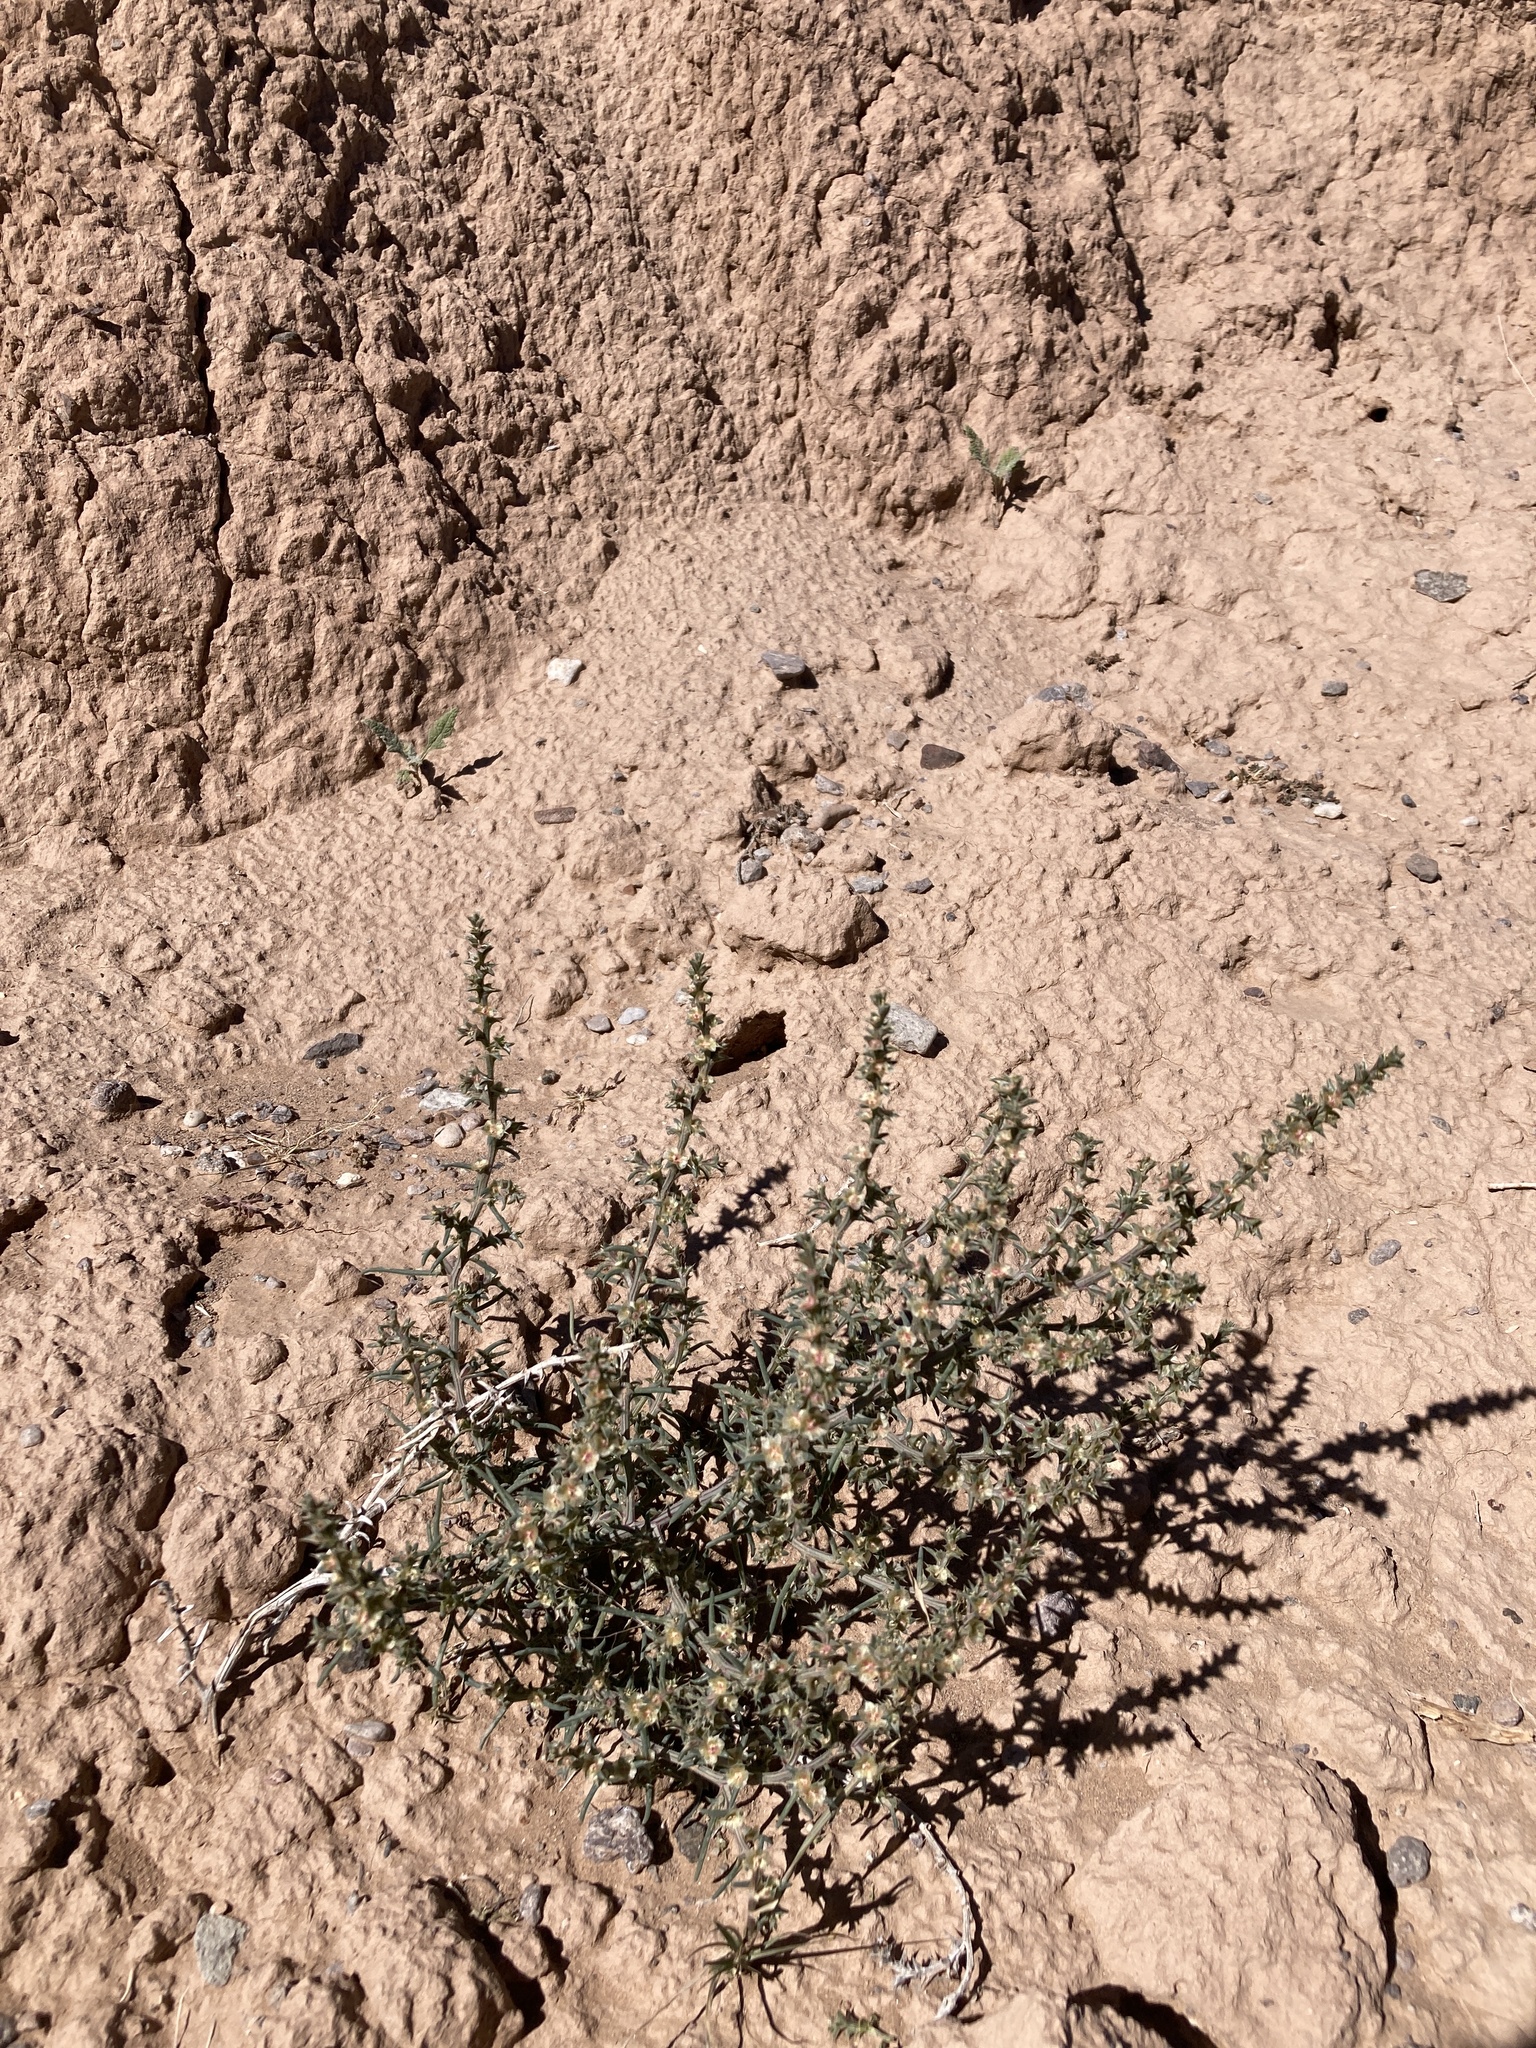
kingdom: Plantae
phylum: Tracheophyta
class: Magnoliopsida
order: Caryophyllales
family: Amaranthaceae
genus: Salsola
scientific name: Salsola tragus
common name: Prickly russian thistle
